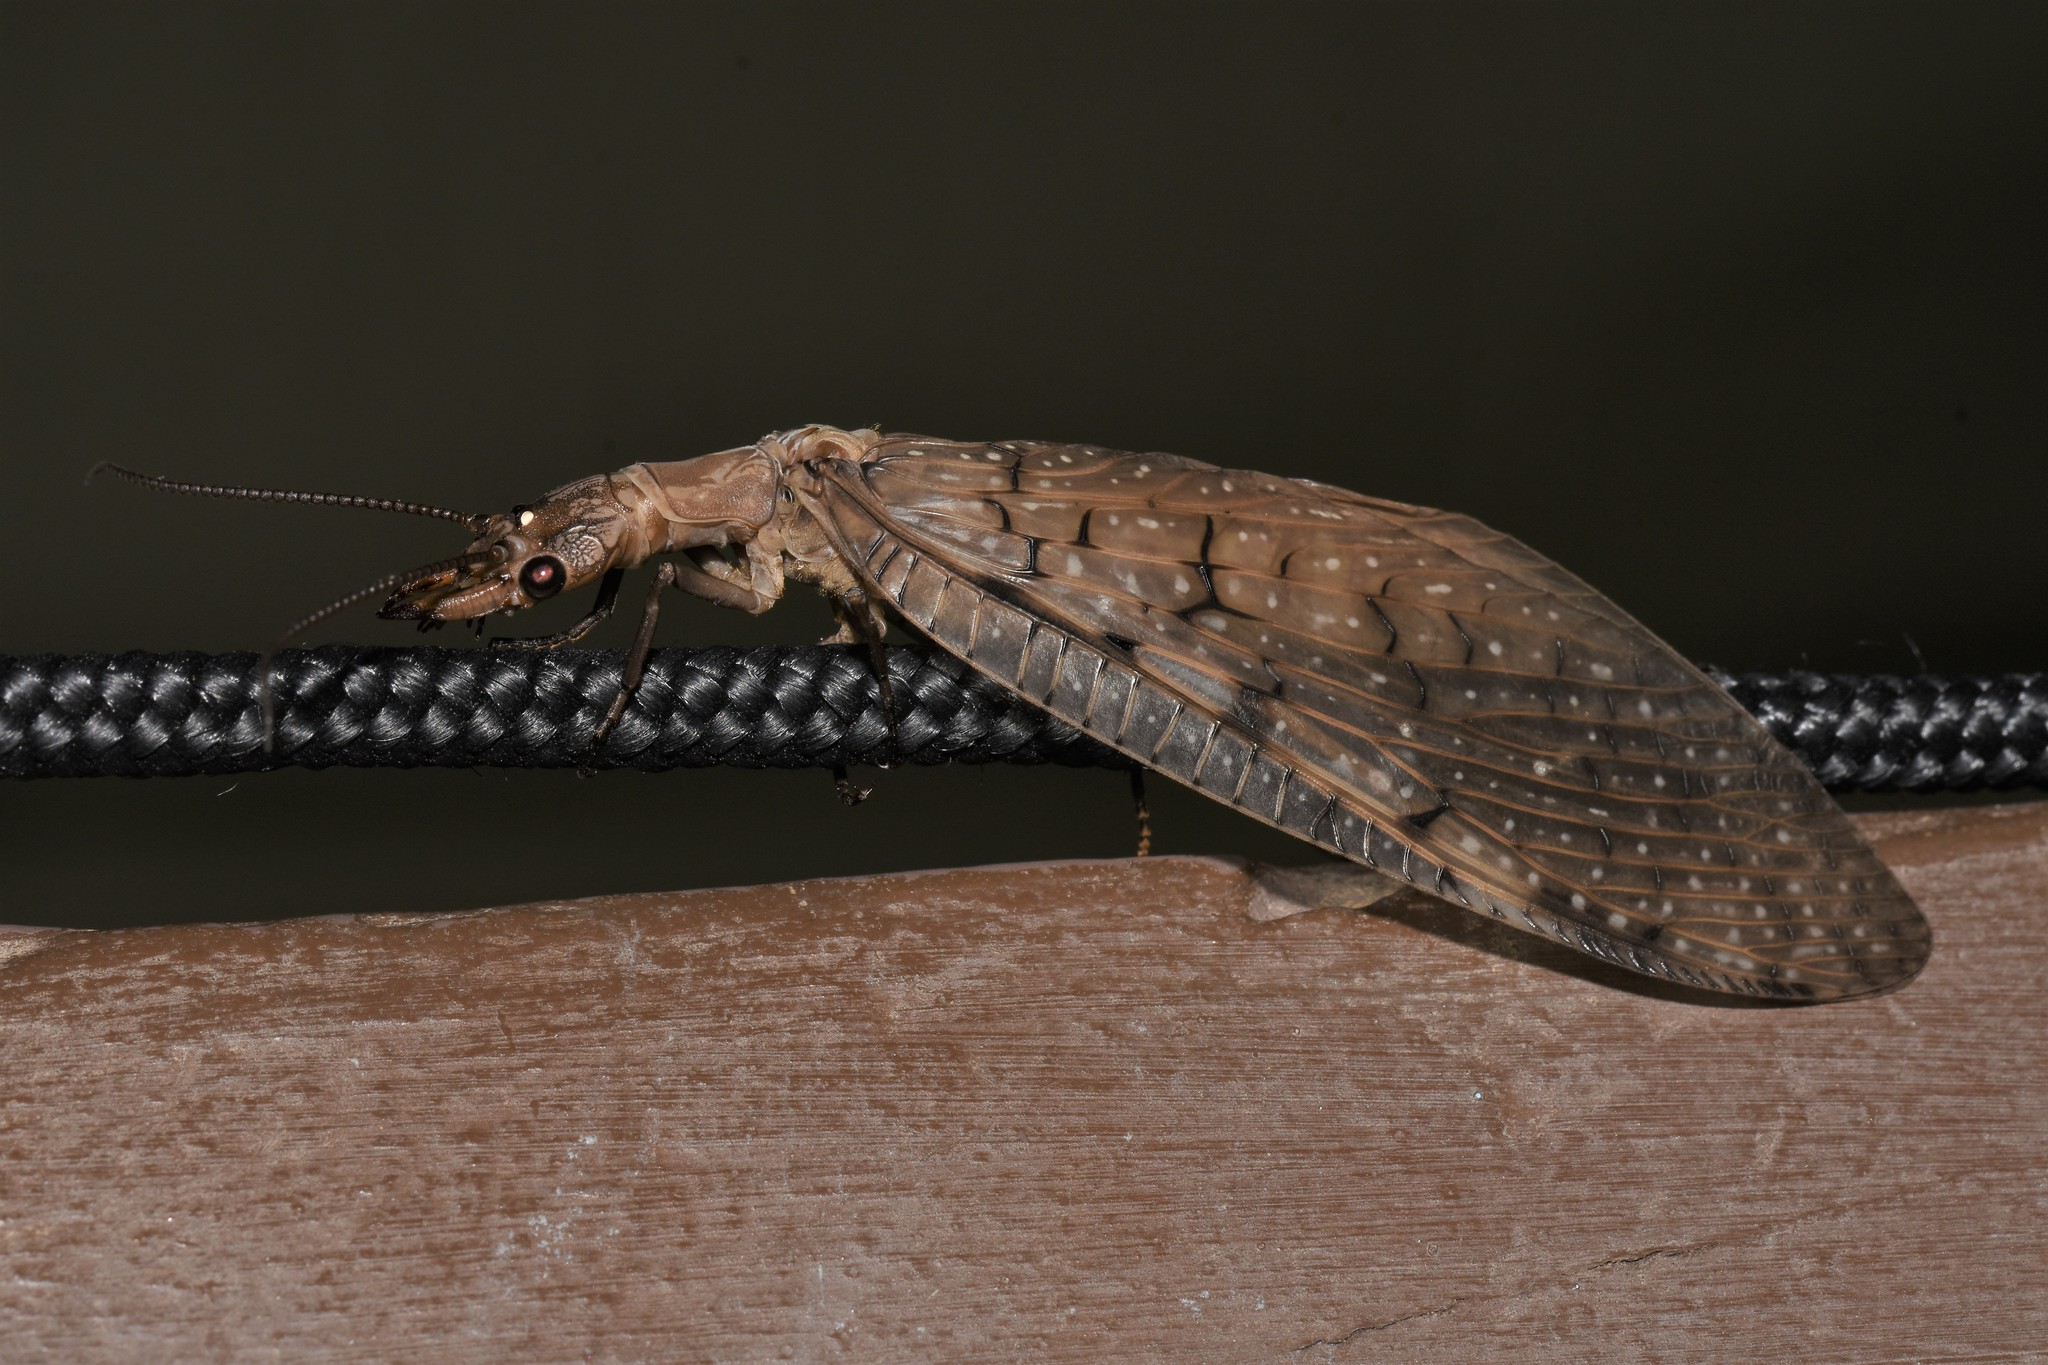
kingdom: Animalia
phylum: Arthropoda
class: Insecta
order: Megaloptera
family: Corydalidae
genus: Corydalus
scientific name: Corydalus cornutus
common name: Dobsonfly
